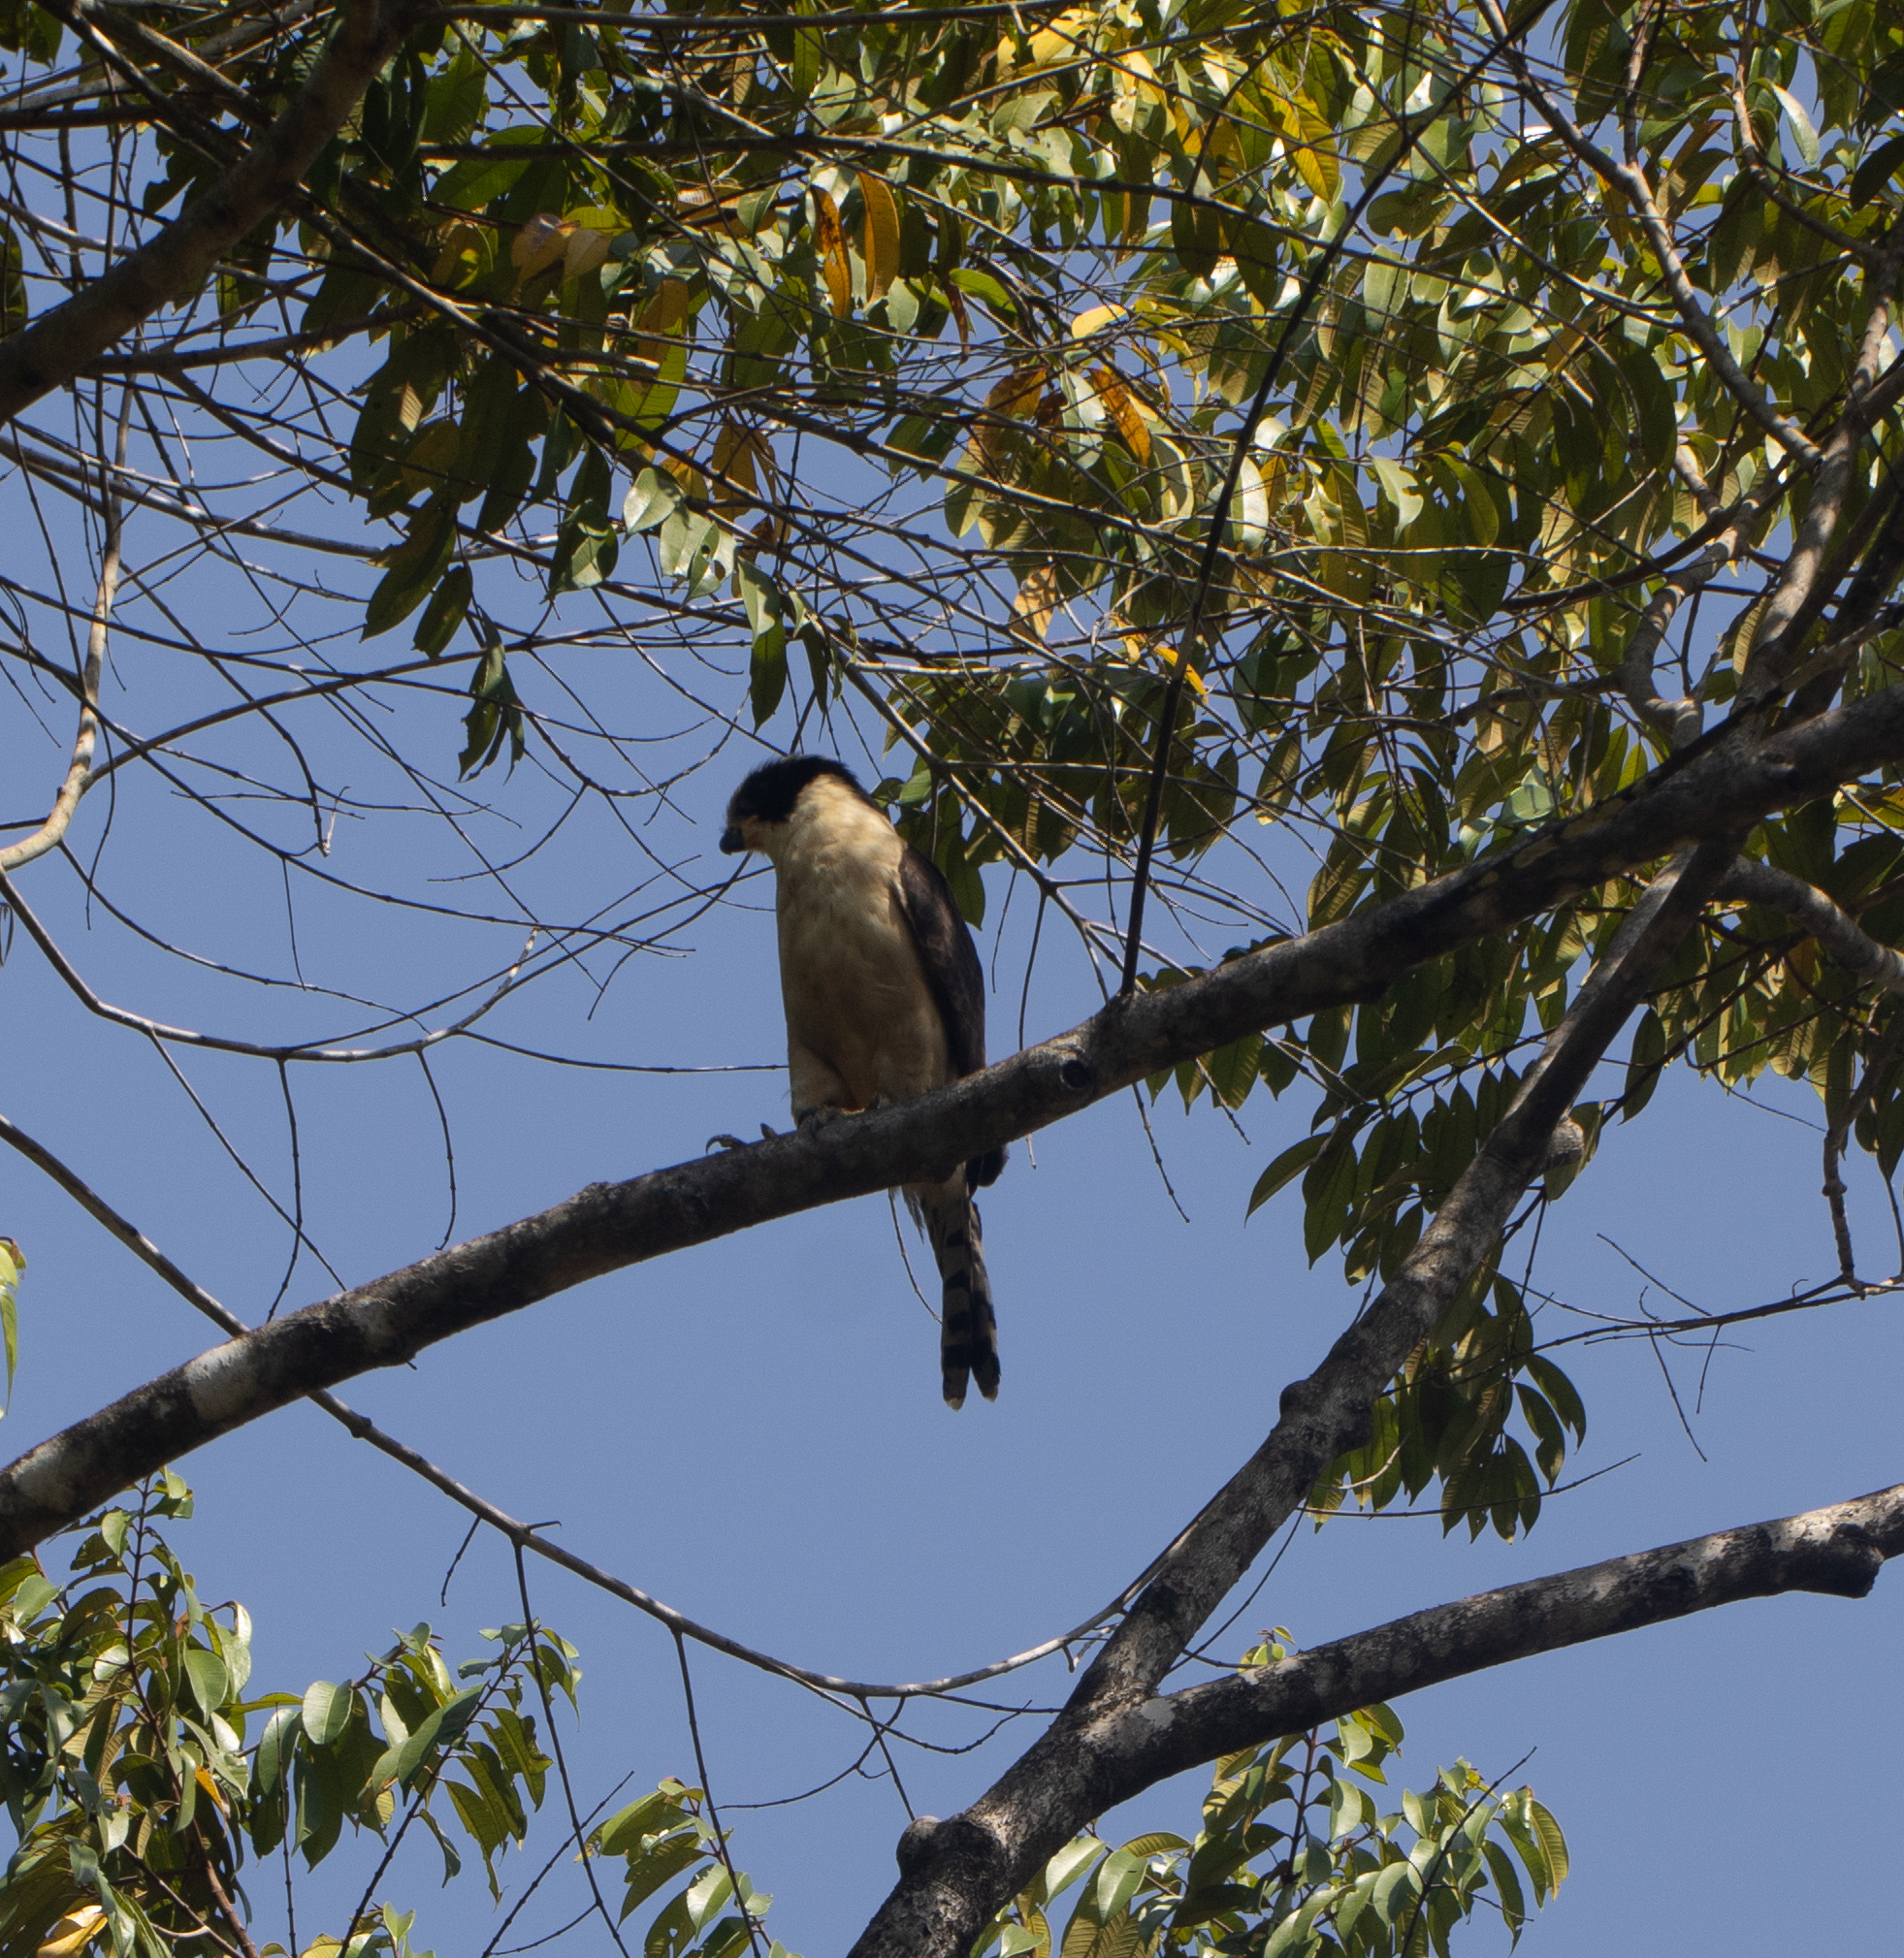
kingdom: Animalia
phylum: Chordata
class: Aves
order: Falconiformes
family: Falconidae
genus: Herpetotheres
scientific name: Herpetotheres cachinnans
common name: Laughing falcon
